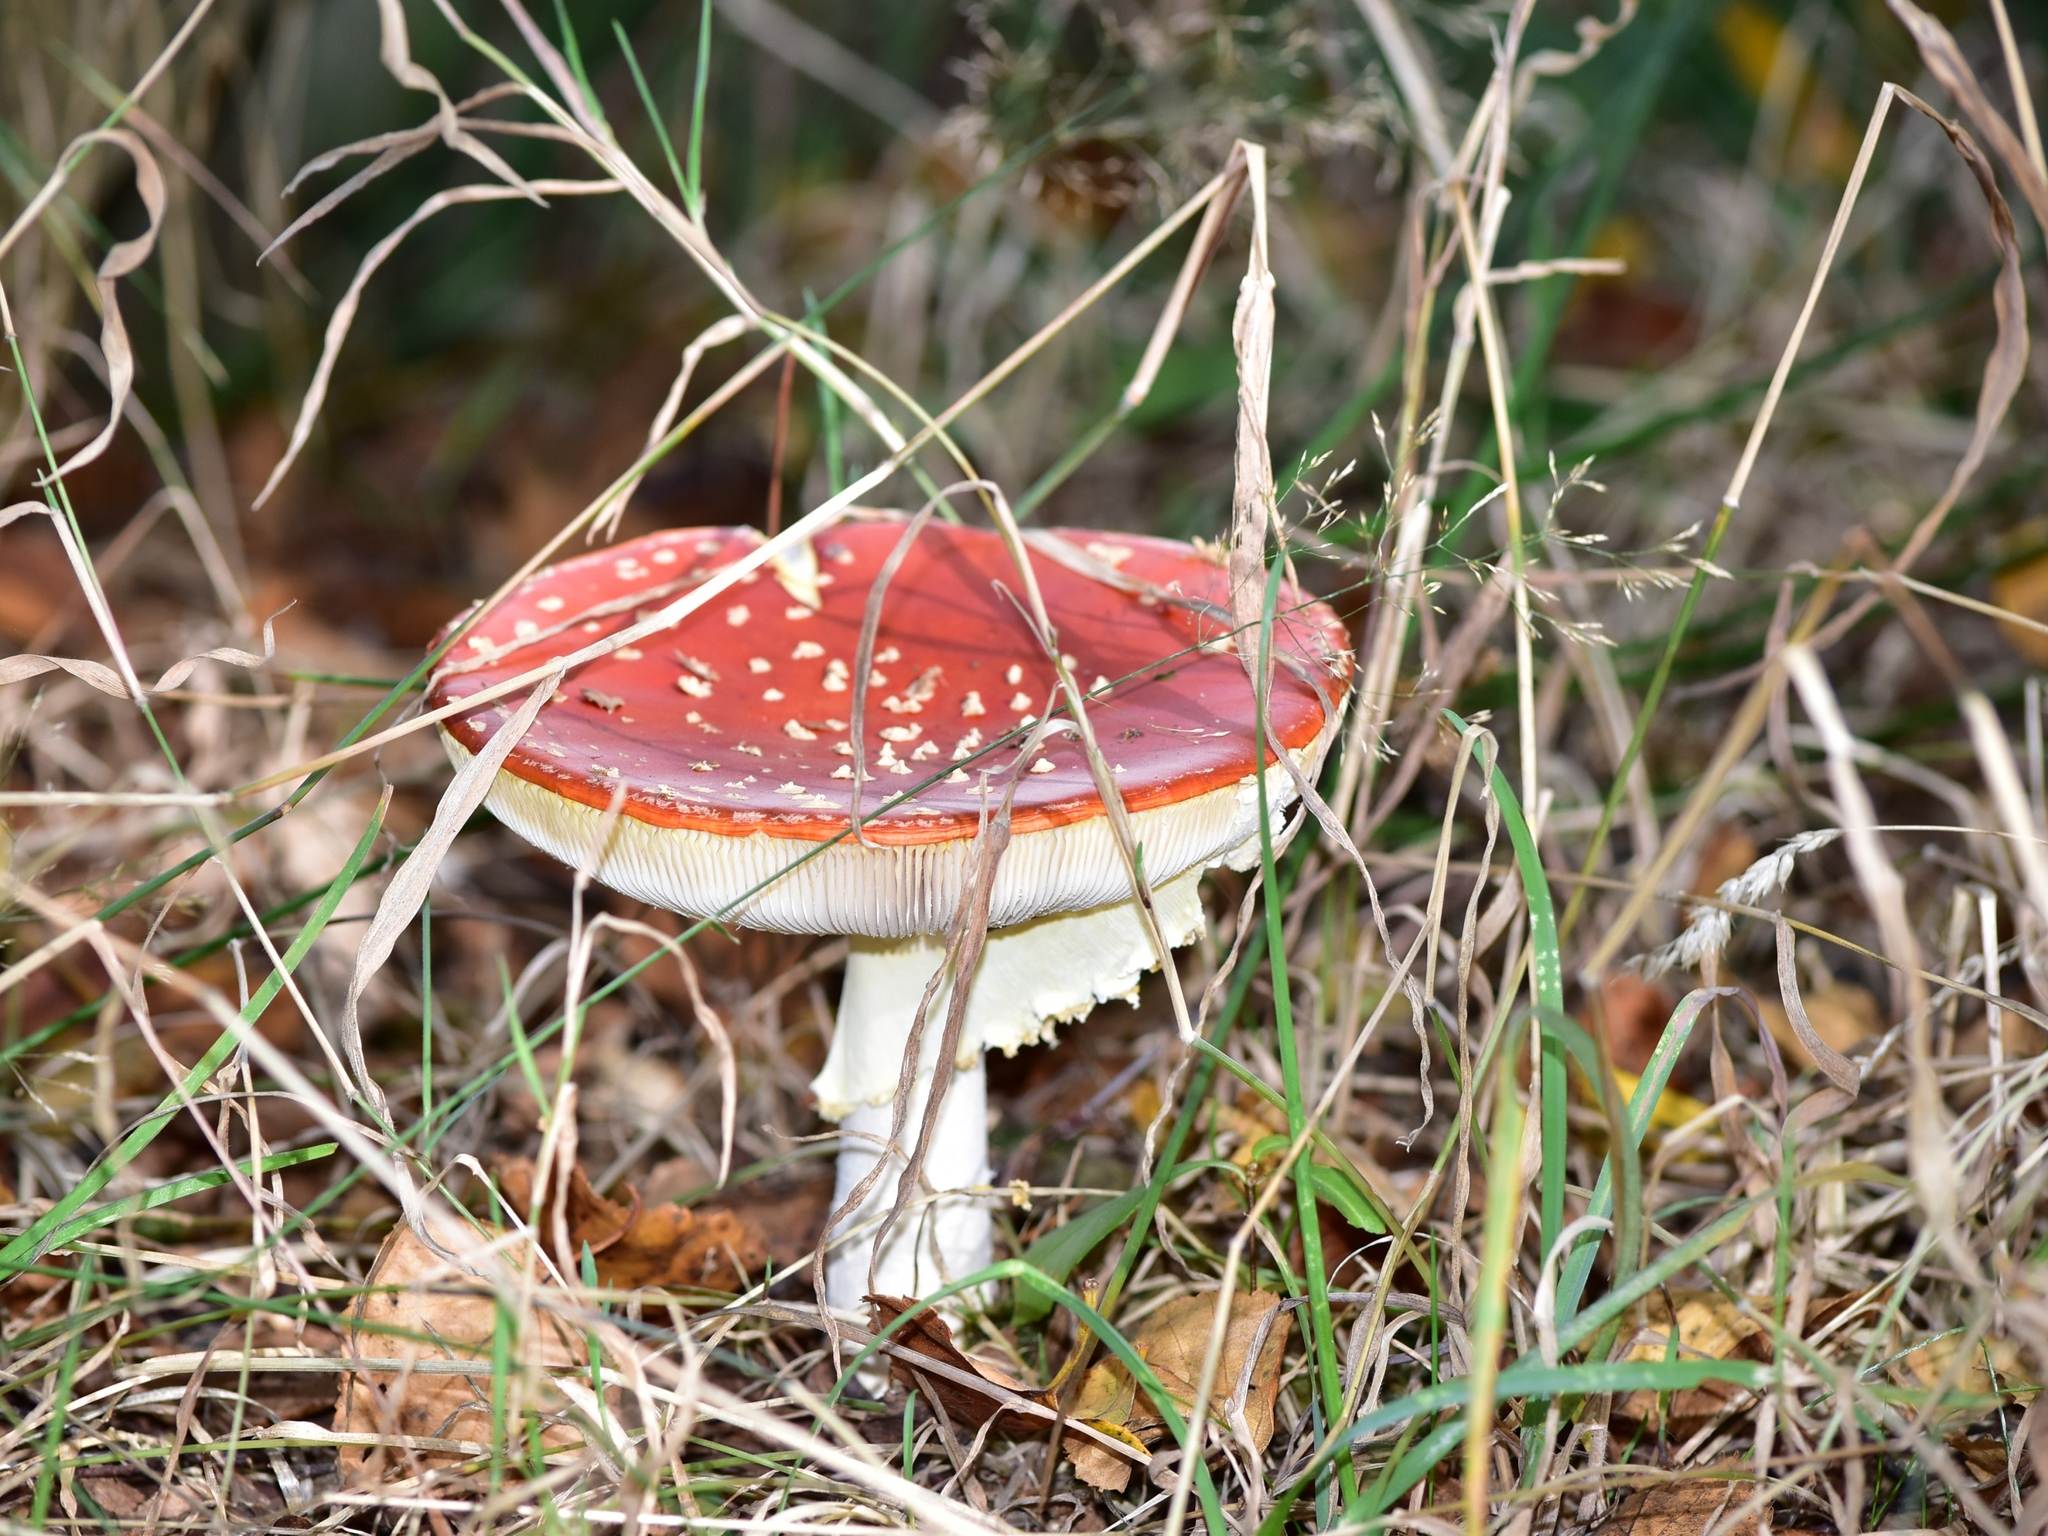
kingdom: Fungi
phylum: Basidiomycota
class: Agaricomycetes
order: Agaricales
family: Amanitaceae
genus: Amanita
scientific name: Amanita muscaria
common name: Fly agaric
